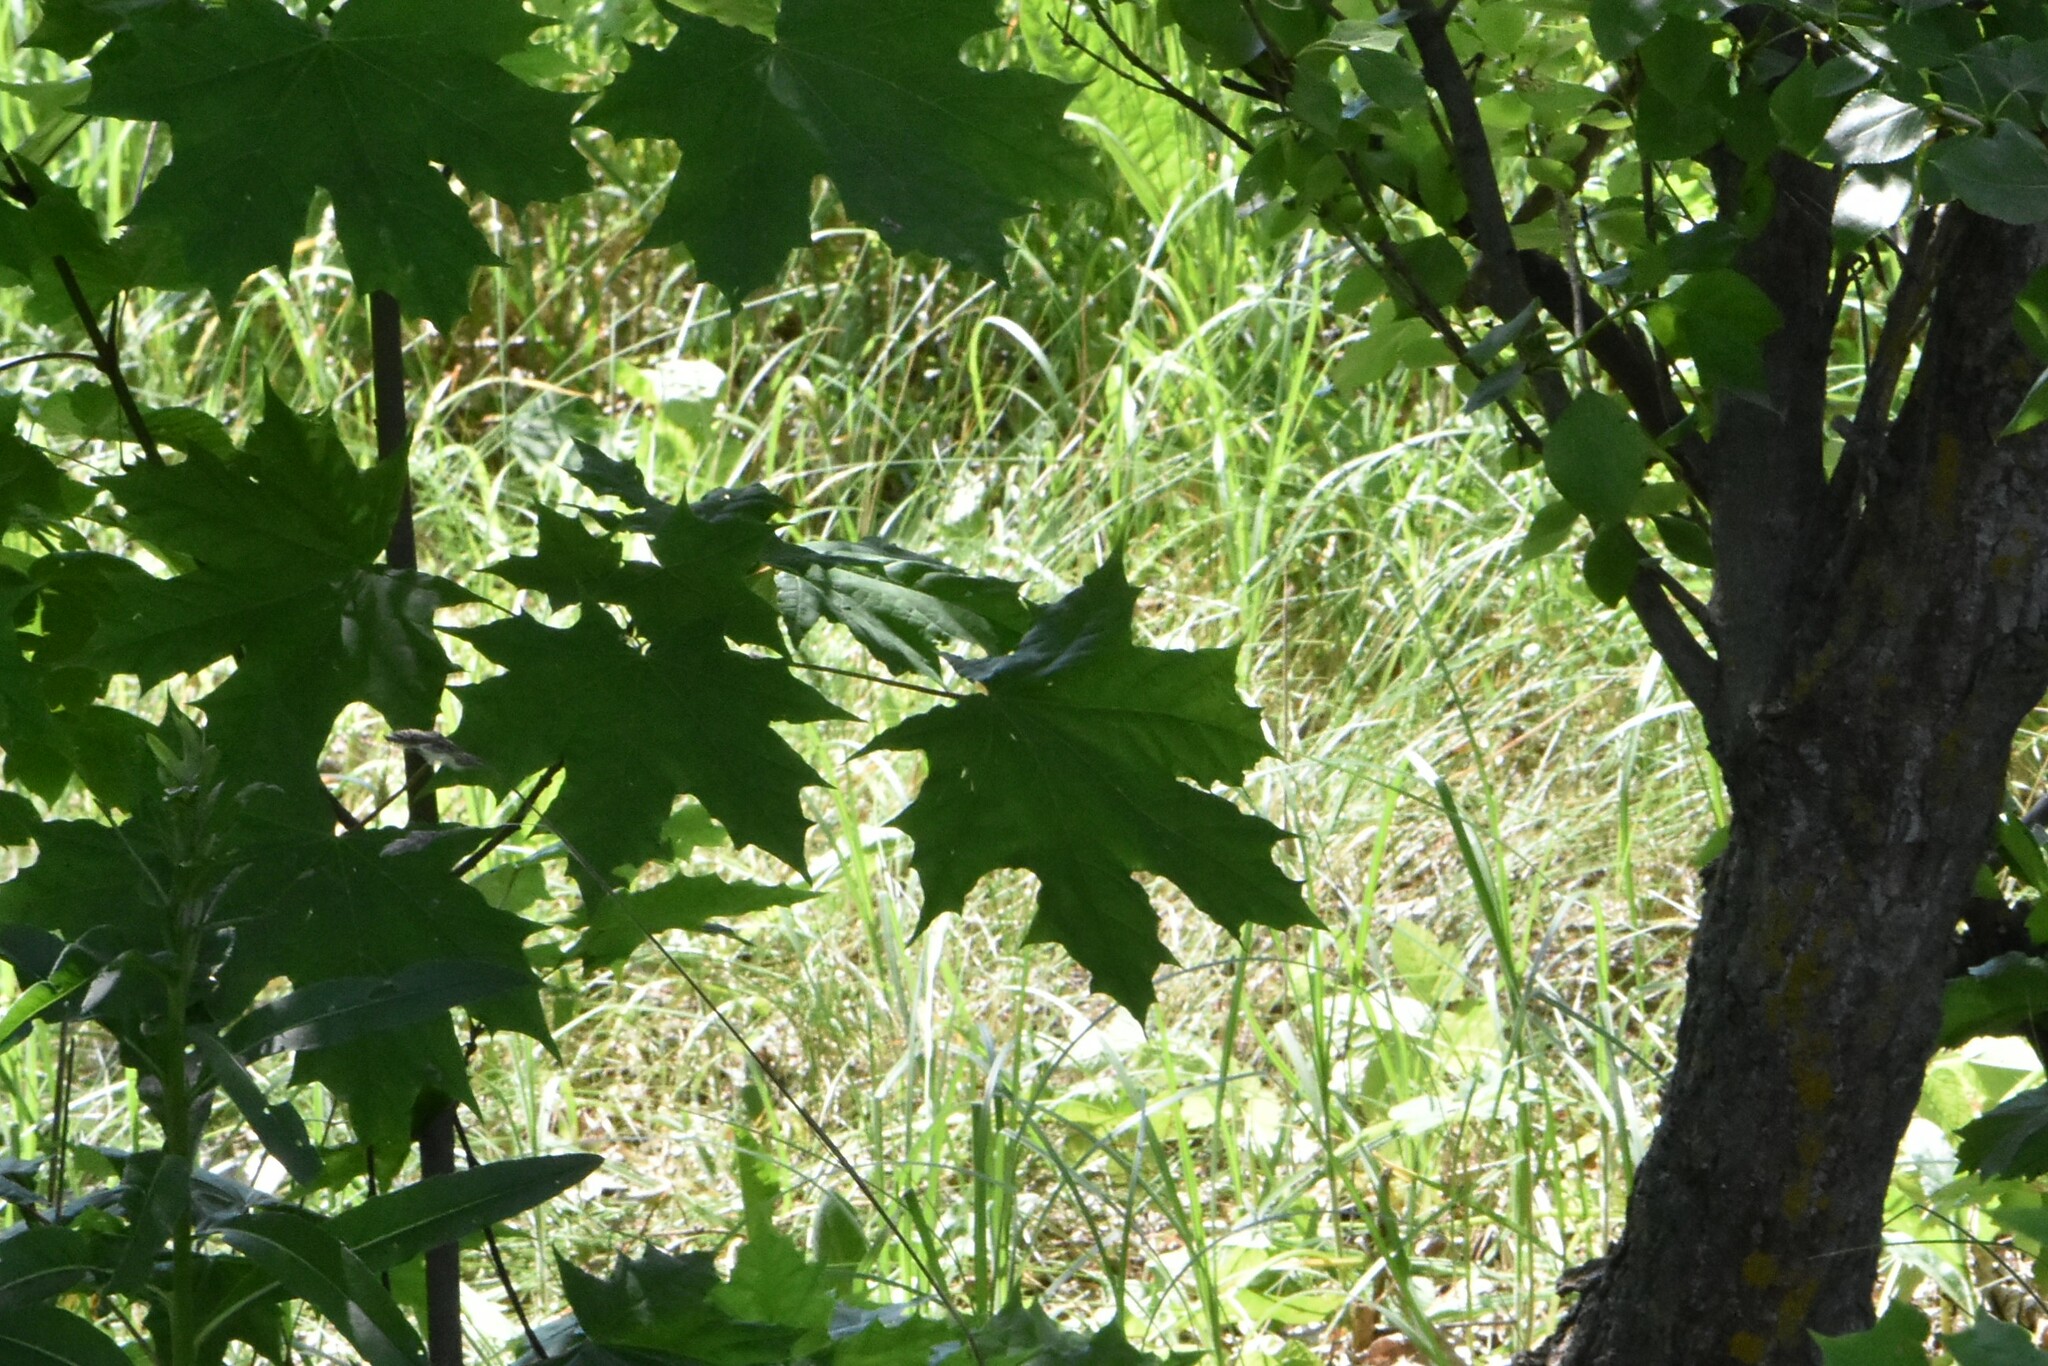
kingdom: Plantae
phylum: Tracheophyta
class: Magnoliopsida
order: Sapindales
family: Sapindaceae
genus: Acer
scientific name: Acer platanoides
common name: Norway maple
